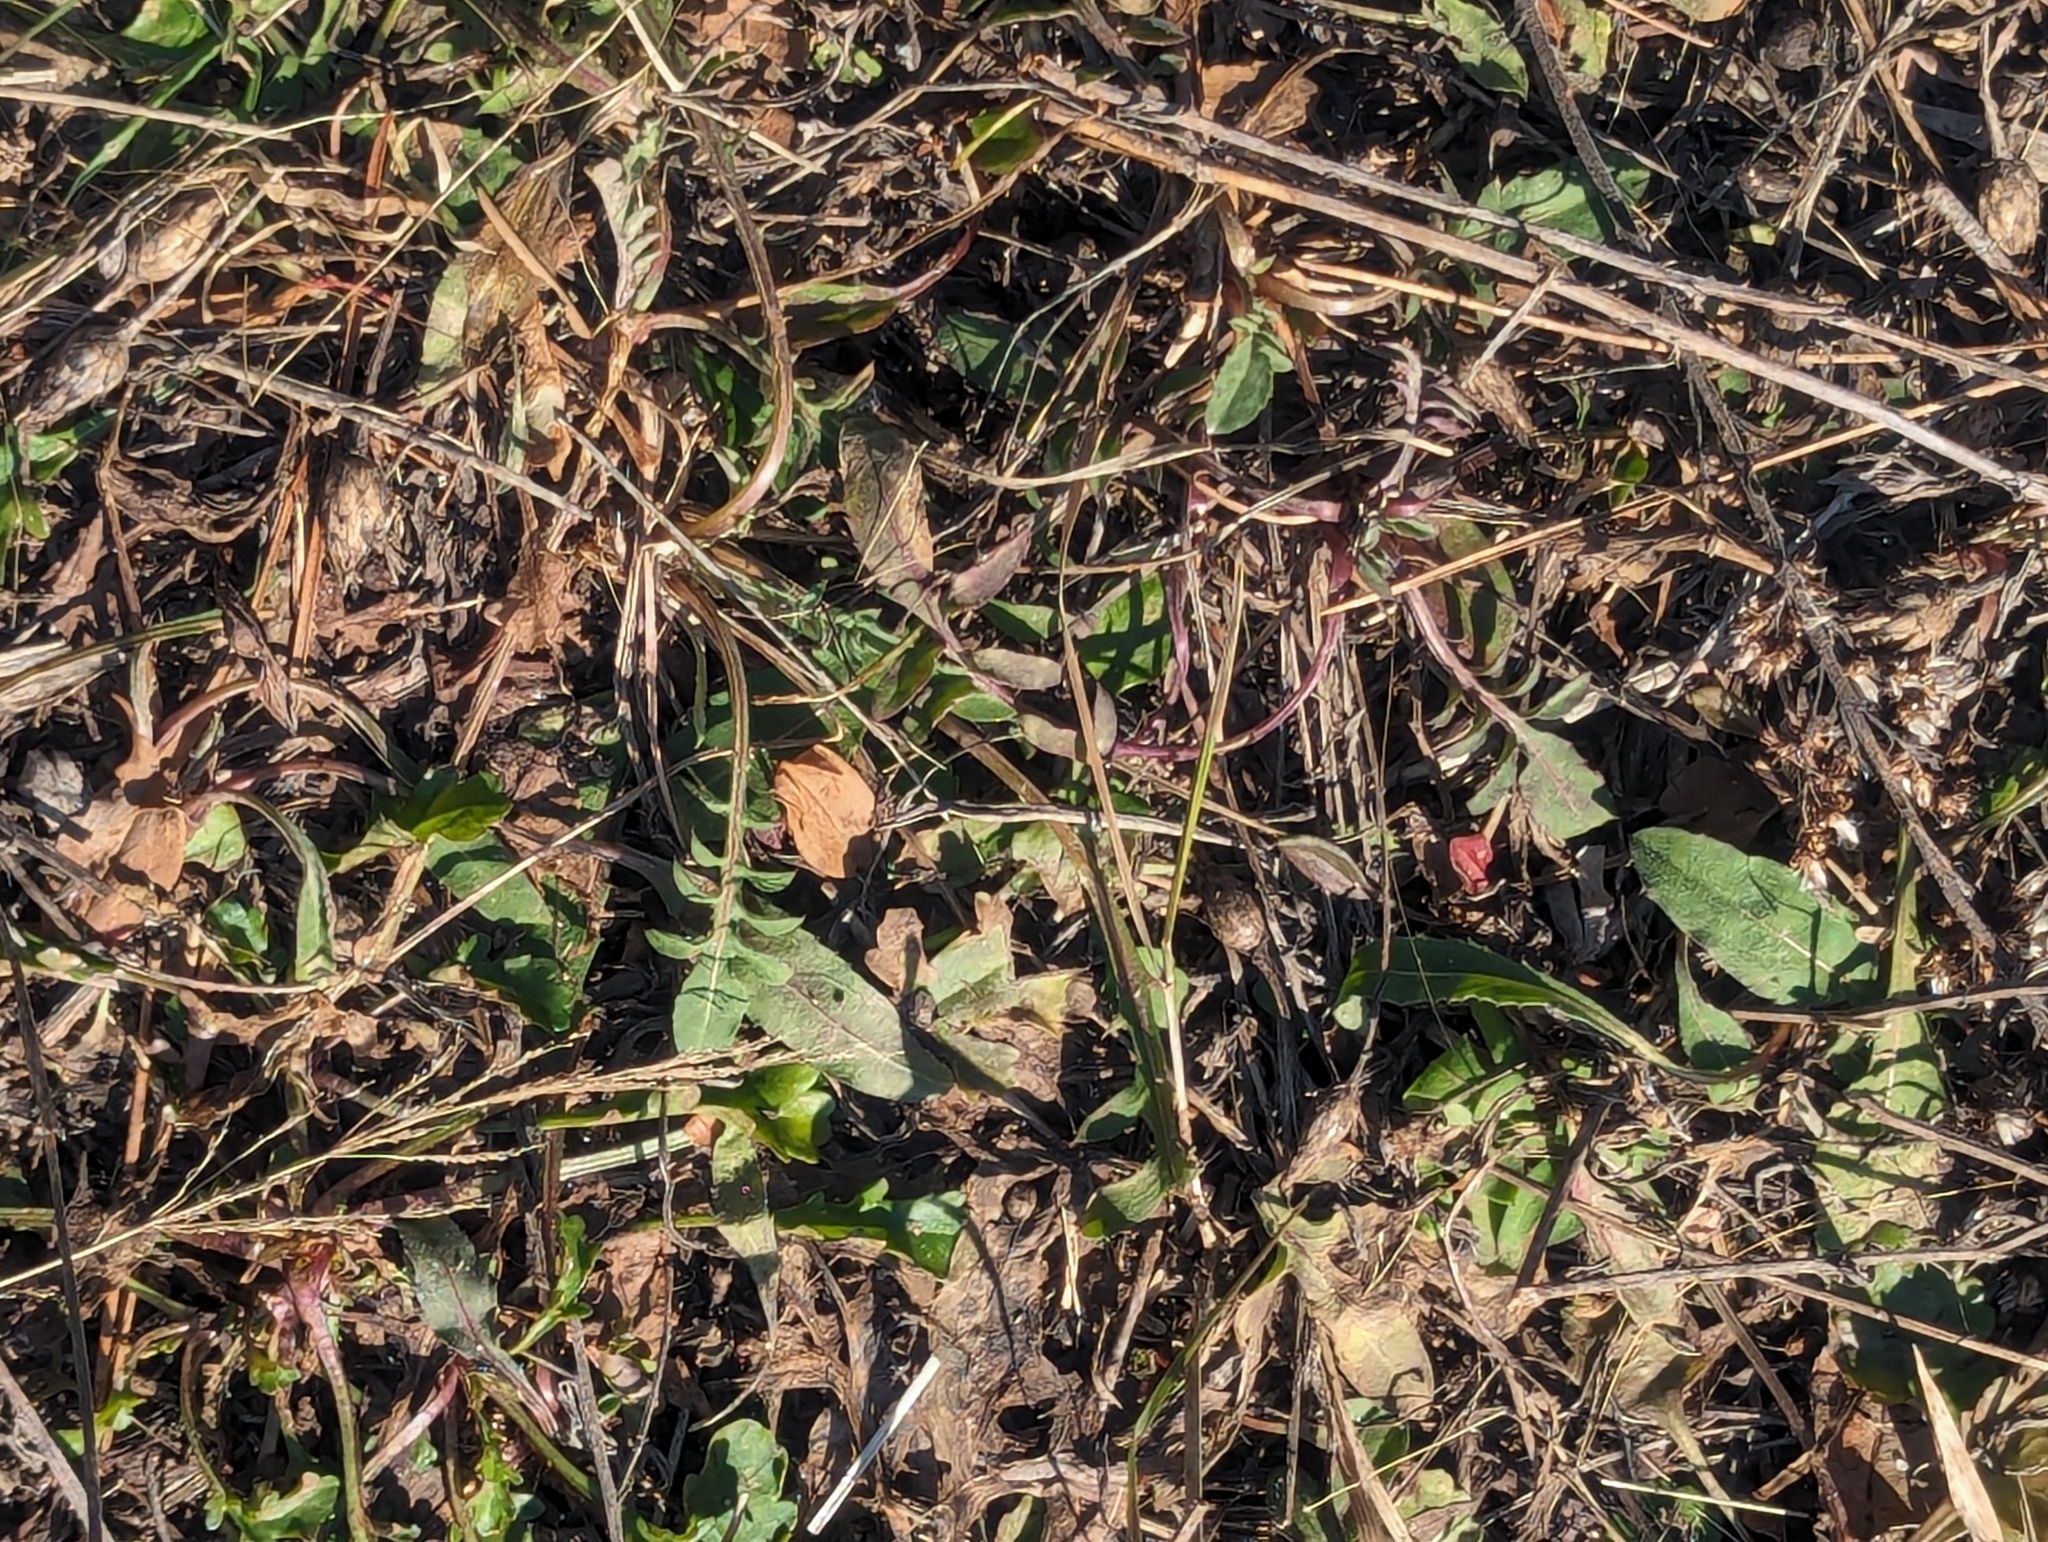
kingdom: Plantae
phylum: Tracheophyta
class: Magnoliopsida
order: Asterales
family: Asteraceae
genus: Centaurea
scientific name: Centaurea stoebe
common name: Spotted knapweed
